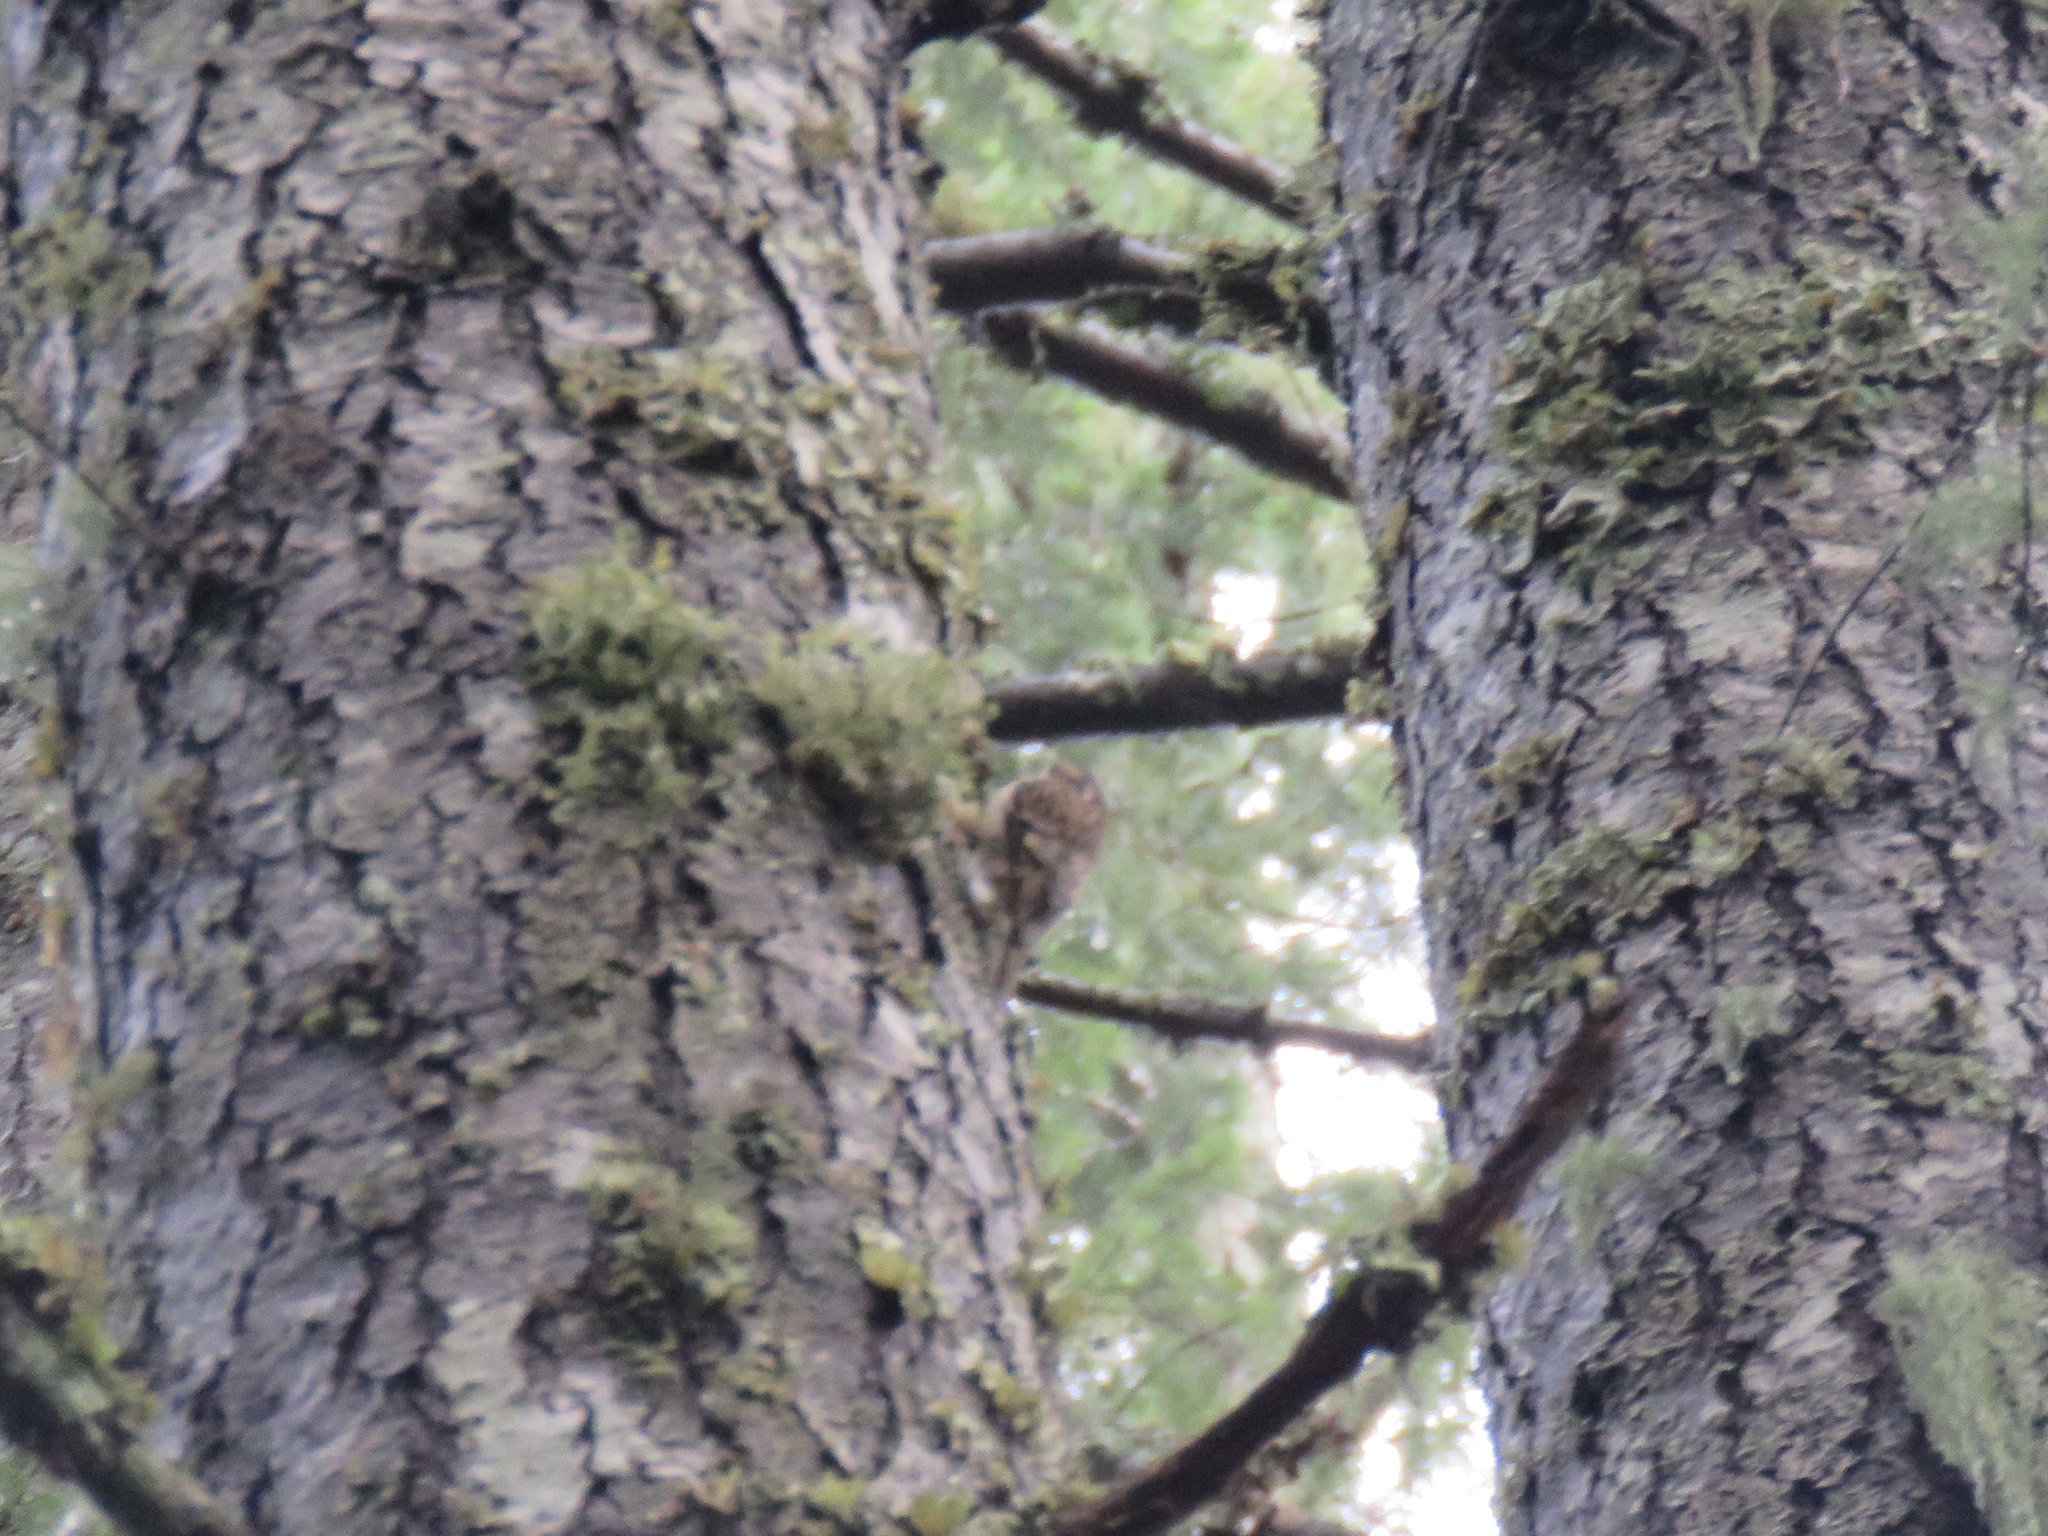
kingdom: Animalia
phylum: Chordata
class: Aves
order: Passeriformes
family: Certhiidae
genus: Certhia
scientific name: Certhia americana
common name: Brown creeper
